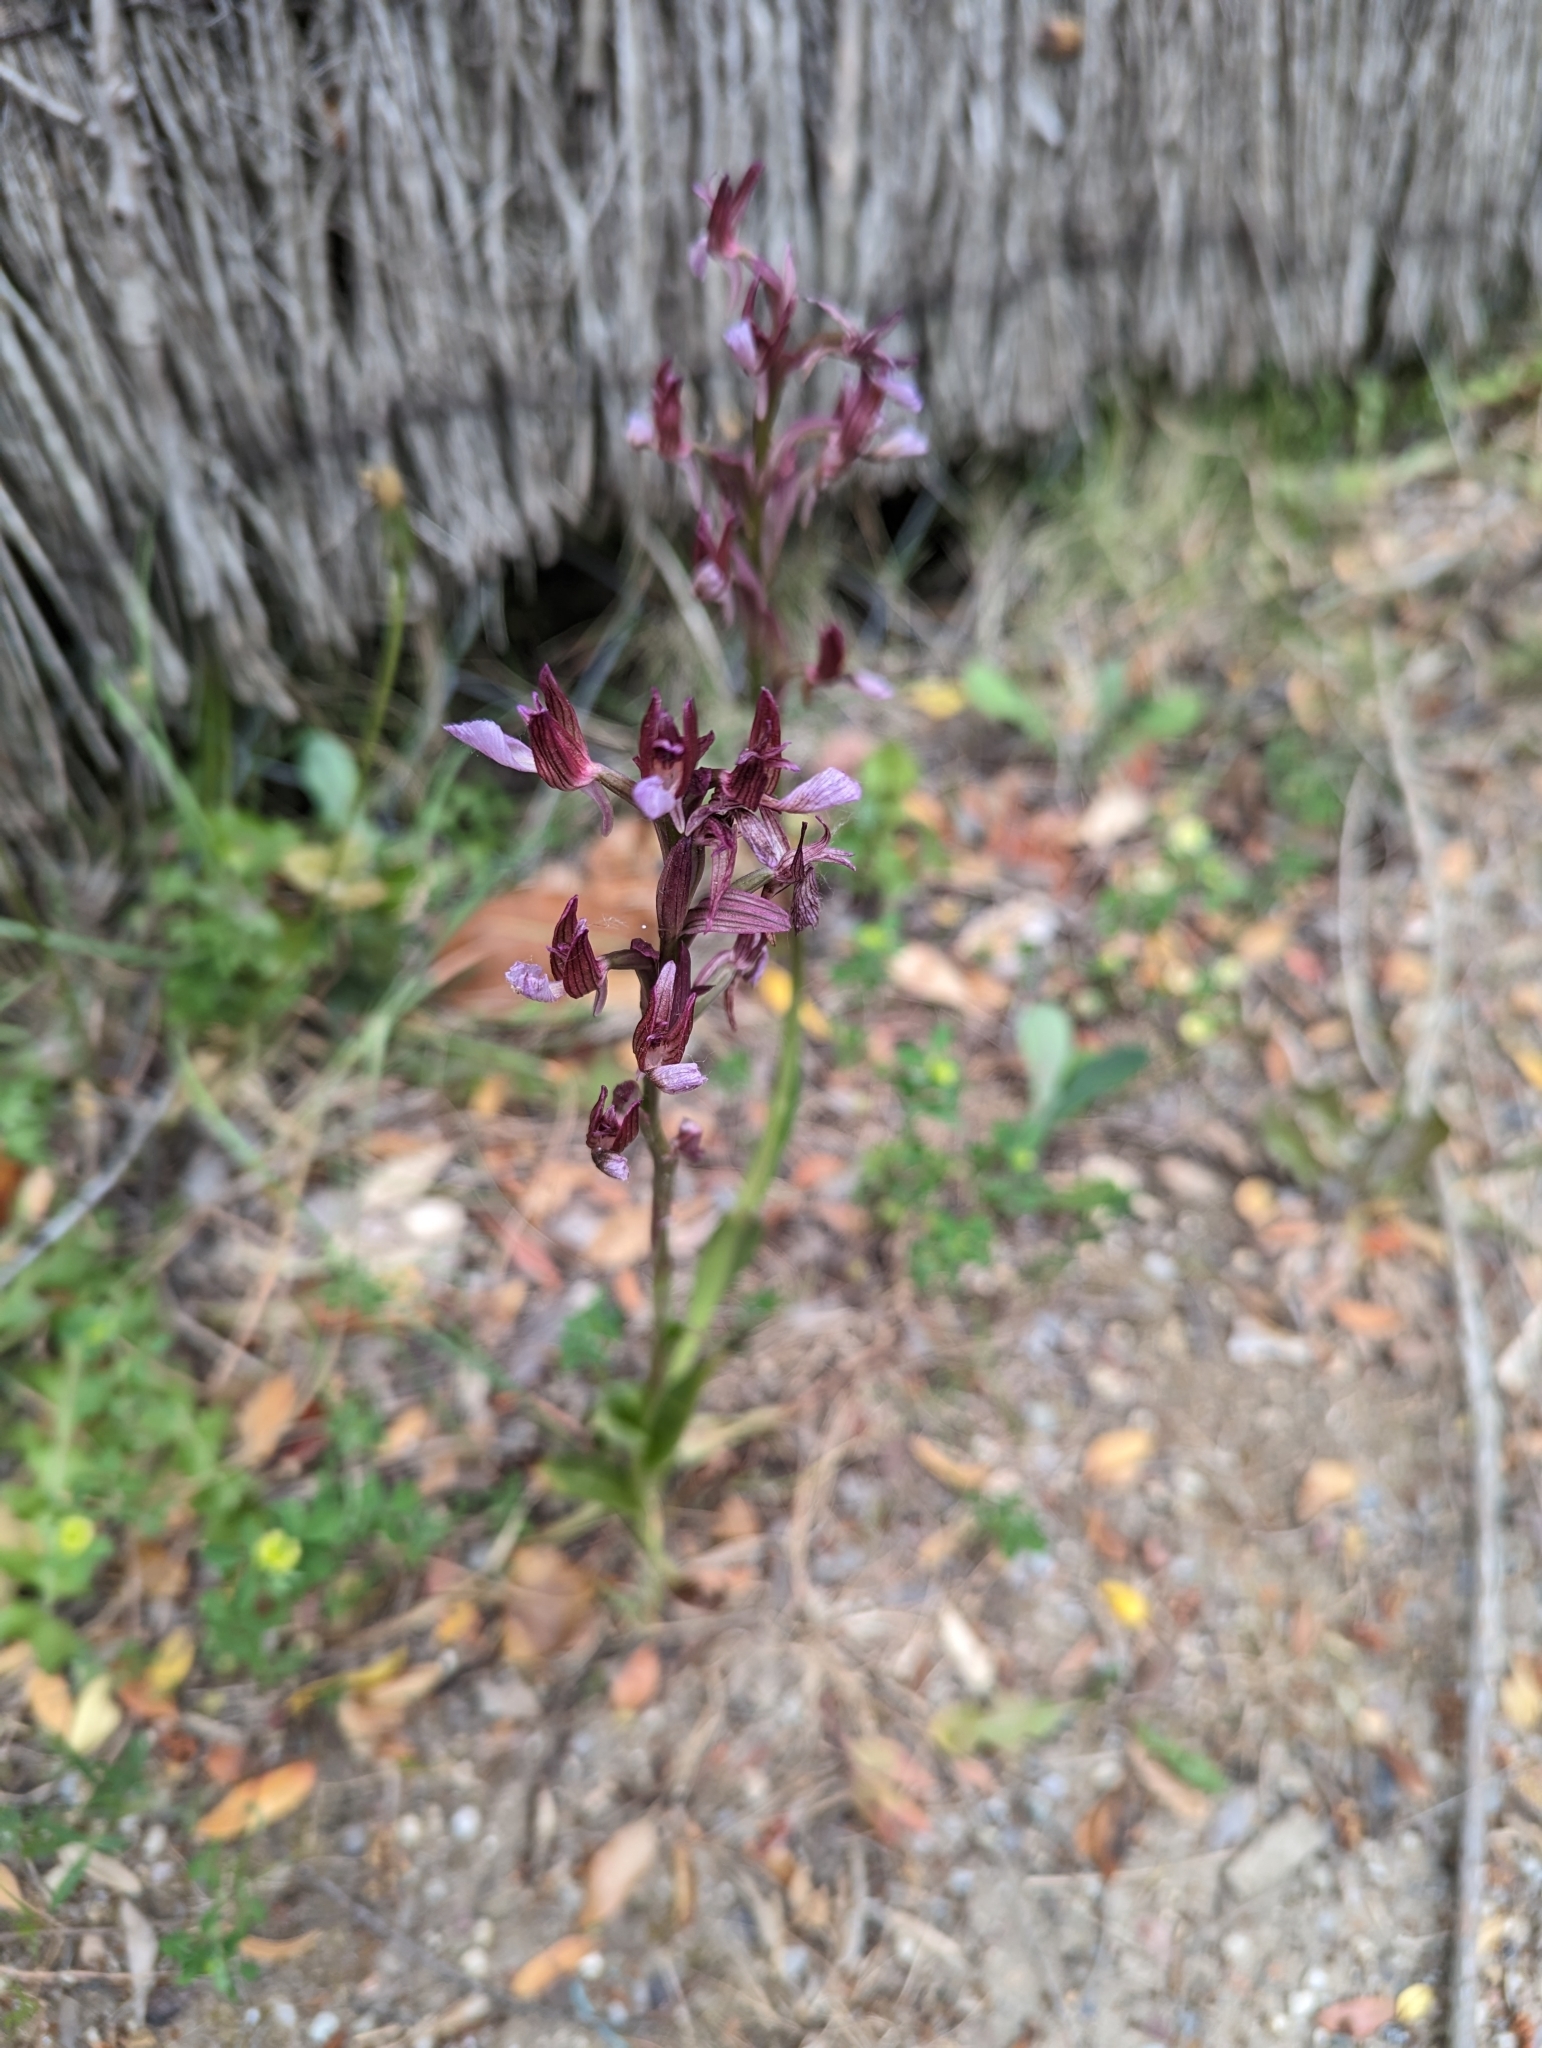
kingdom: Plantae
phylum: Tracheophyta
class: Liliopsida
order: Asparagales
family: Orchidaceae
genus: Anacamptis
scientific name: Anacamptis papilionacea
